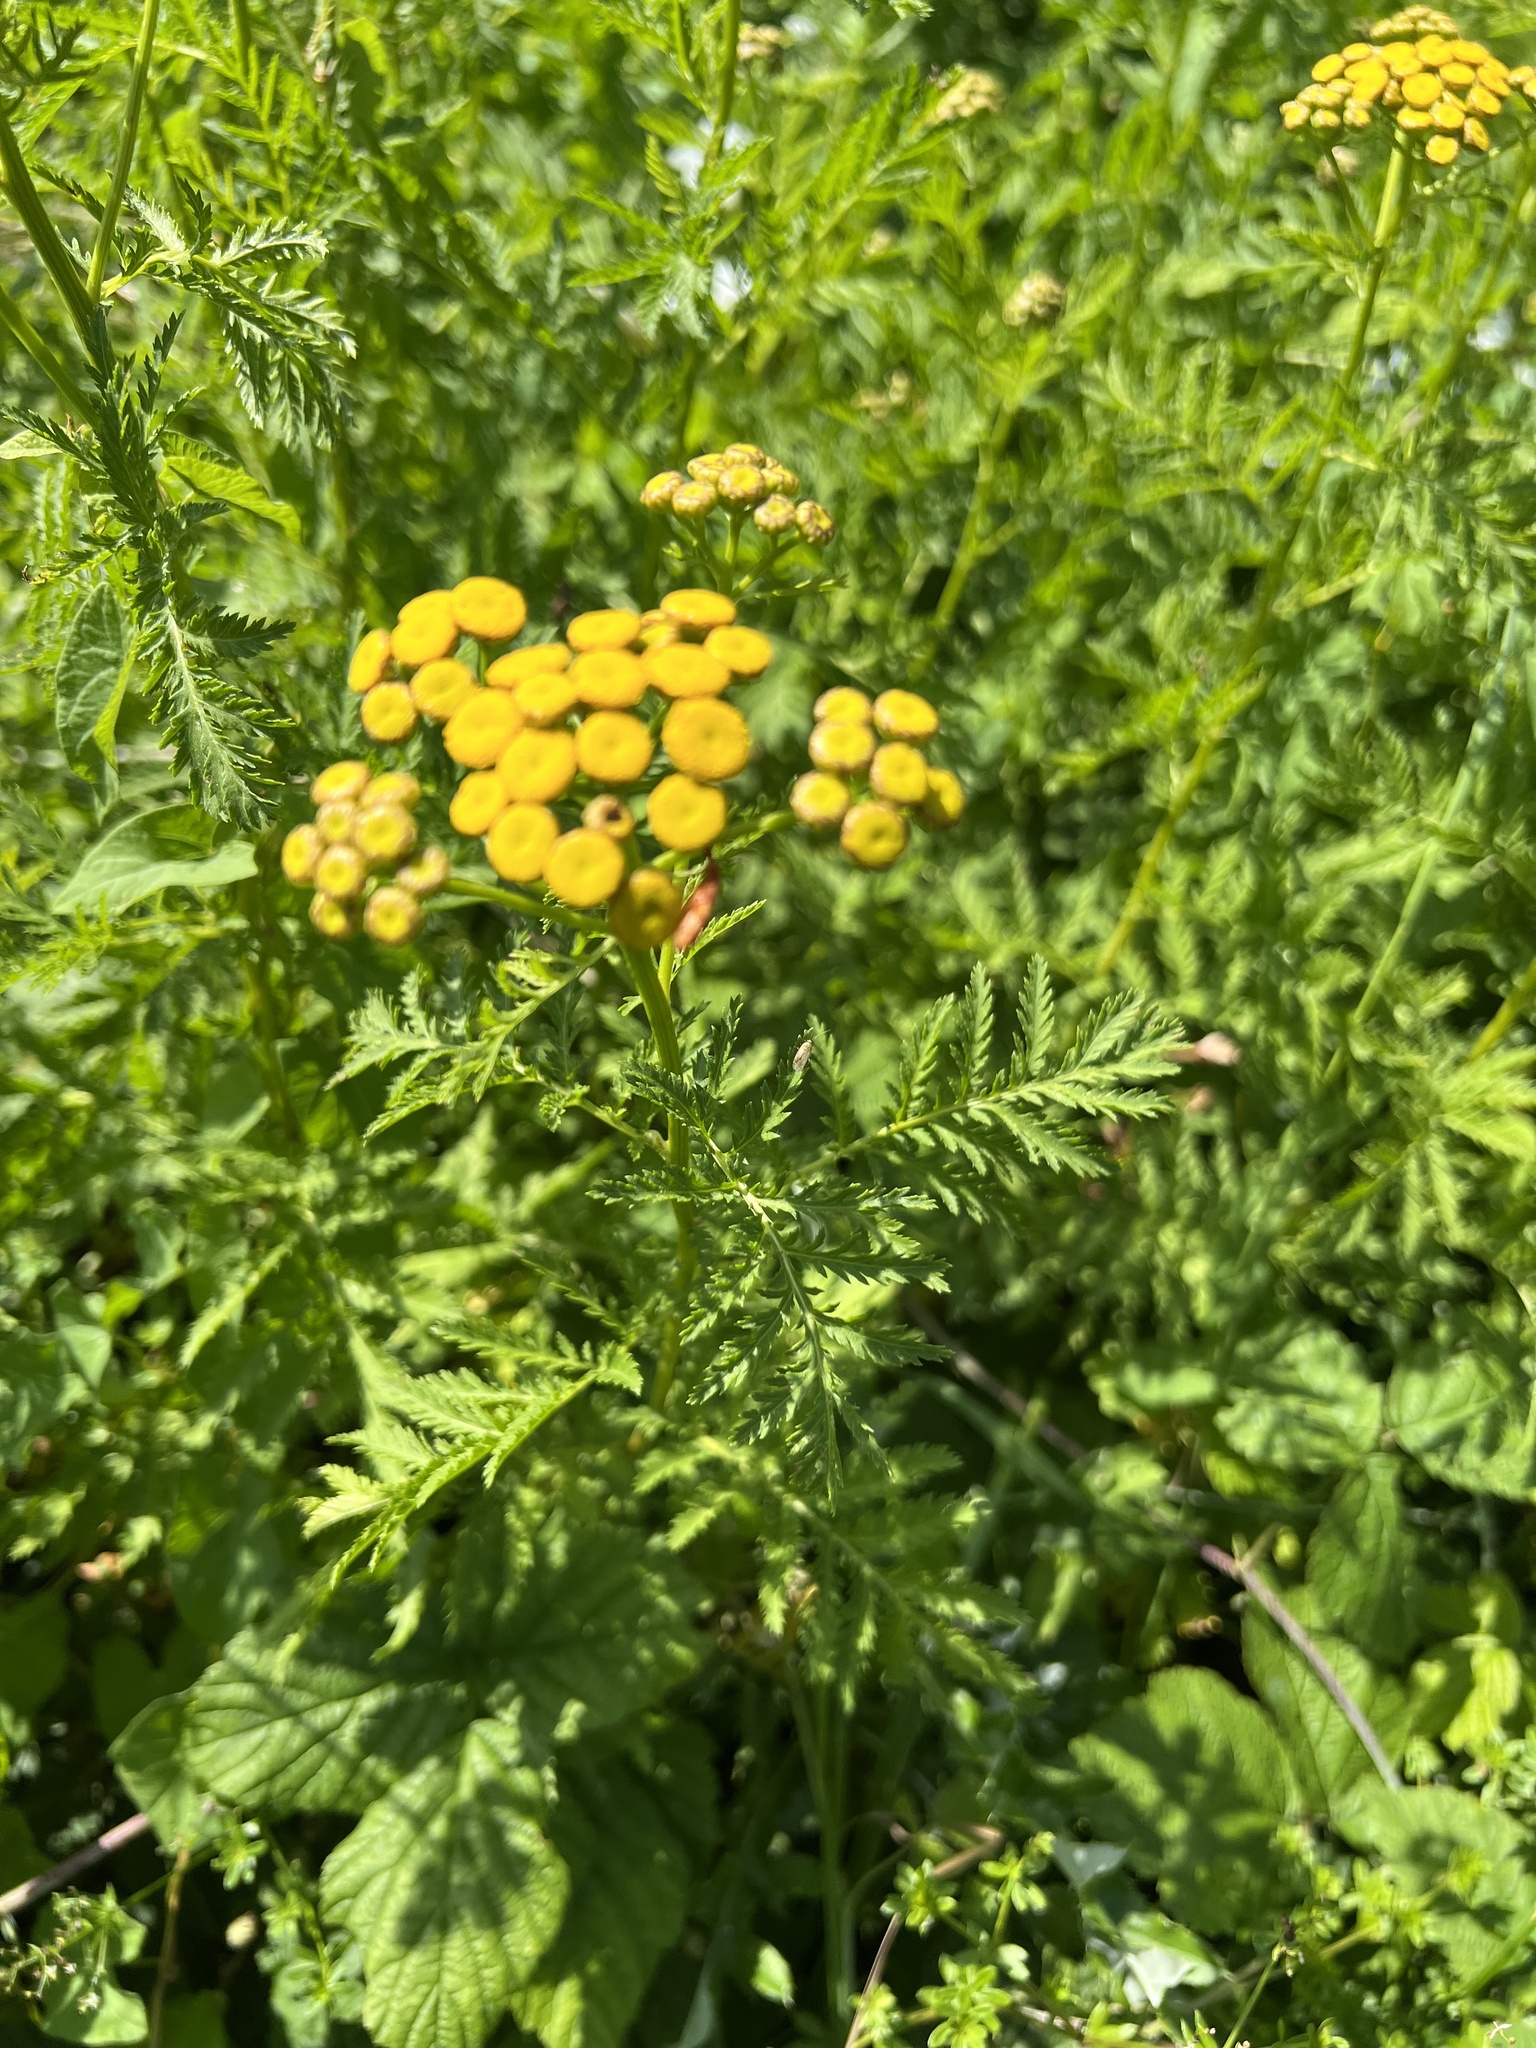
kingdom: Plantae
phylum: Tracheophyta
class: Magnoliopsida
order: Asterales
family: Asteraceae
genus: Tanacetum
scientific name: Tanacetum vulgare
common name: Common tansy
